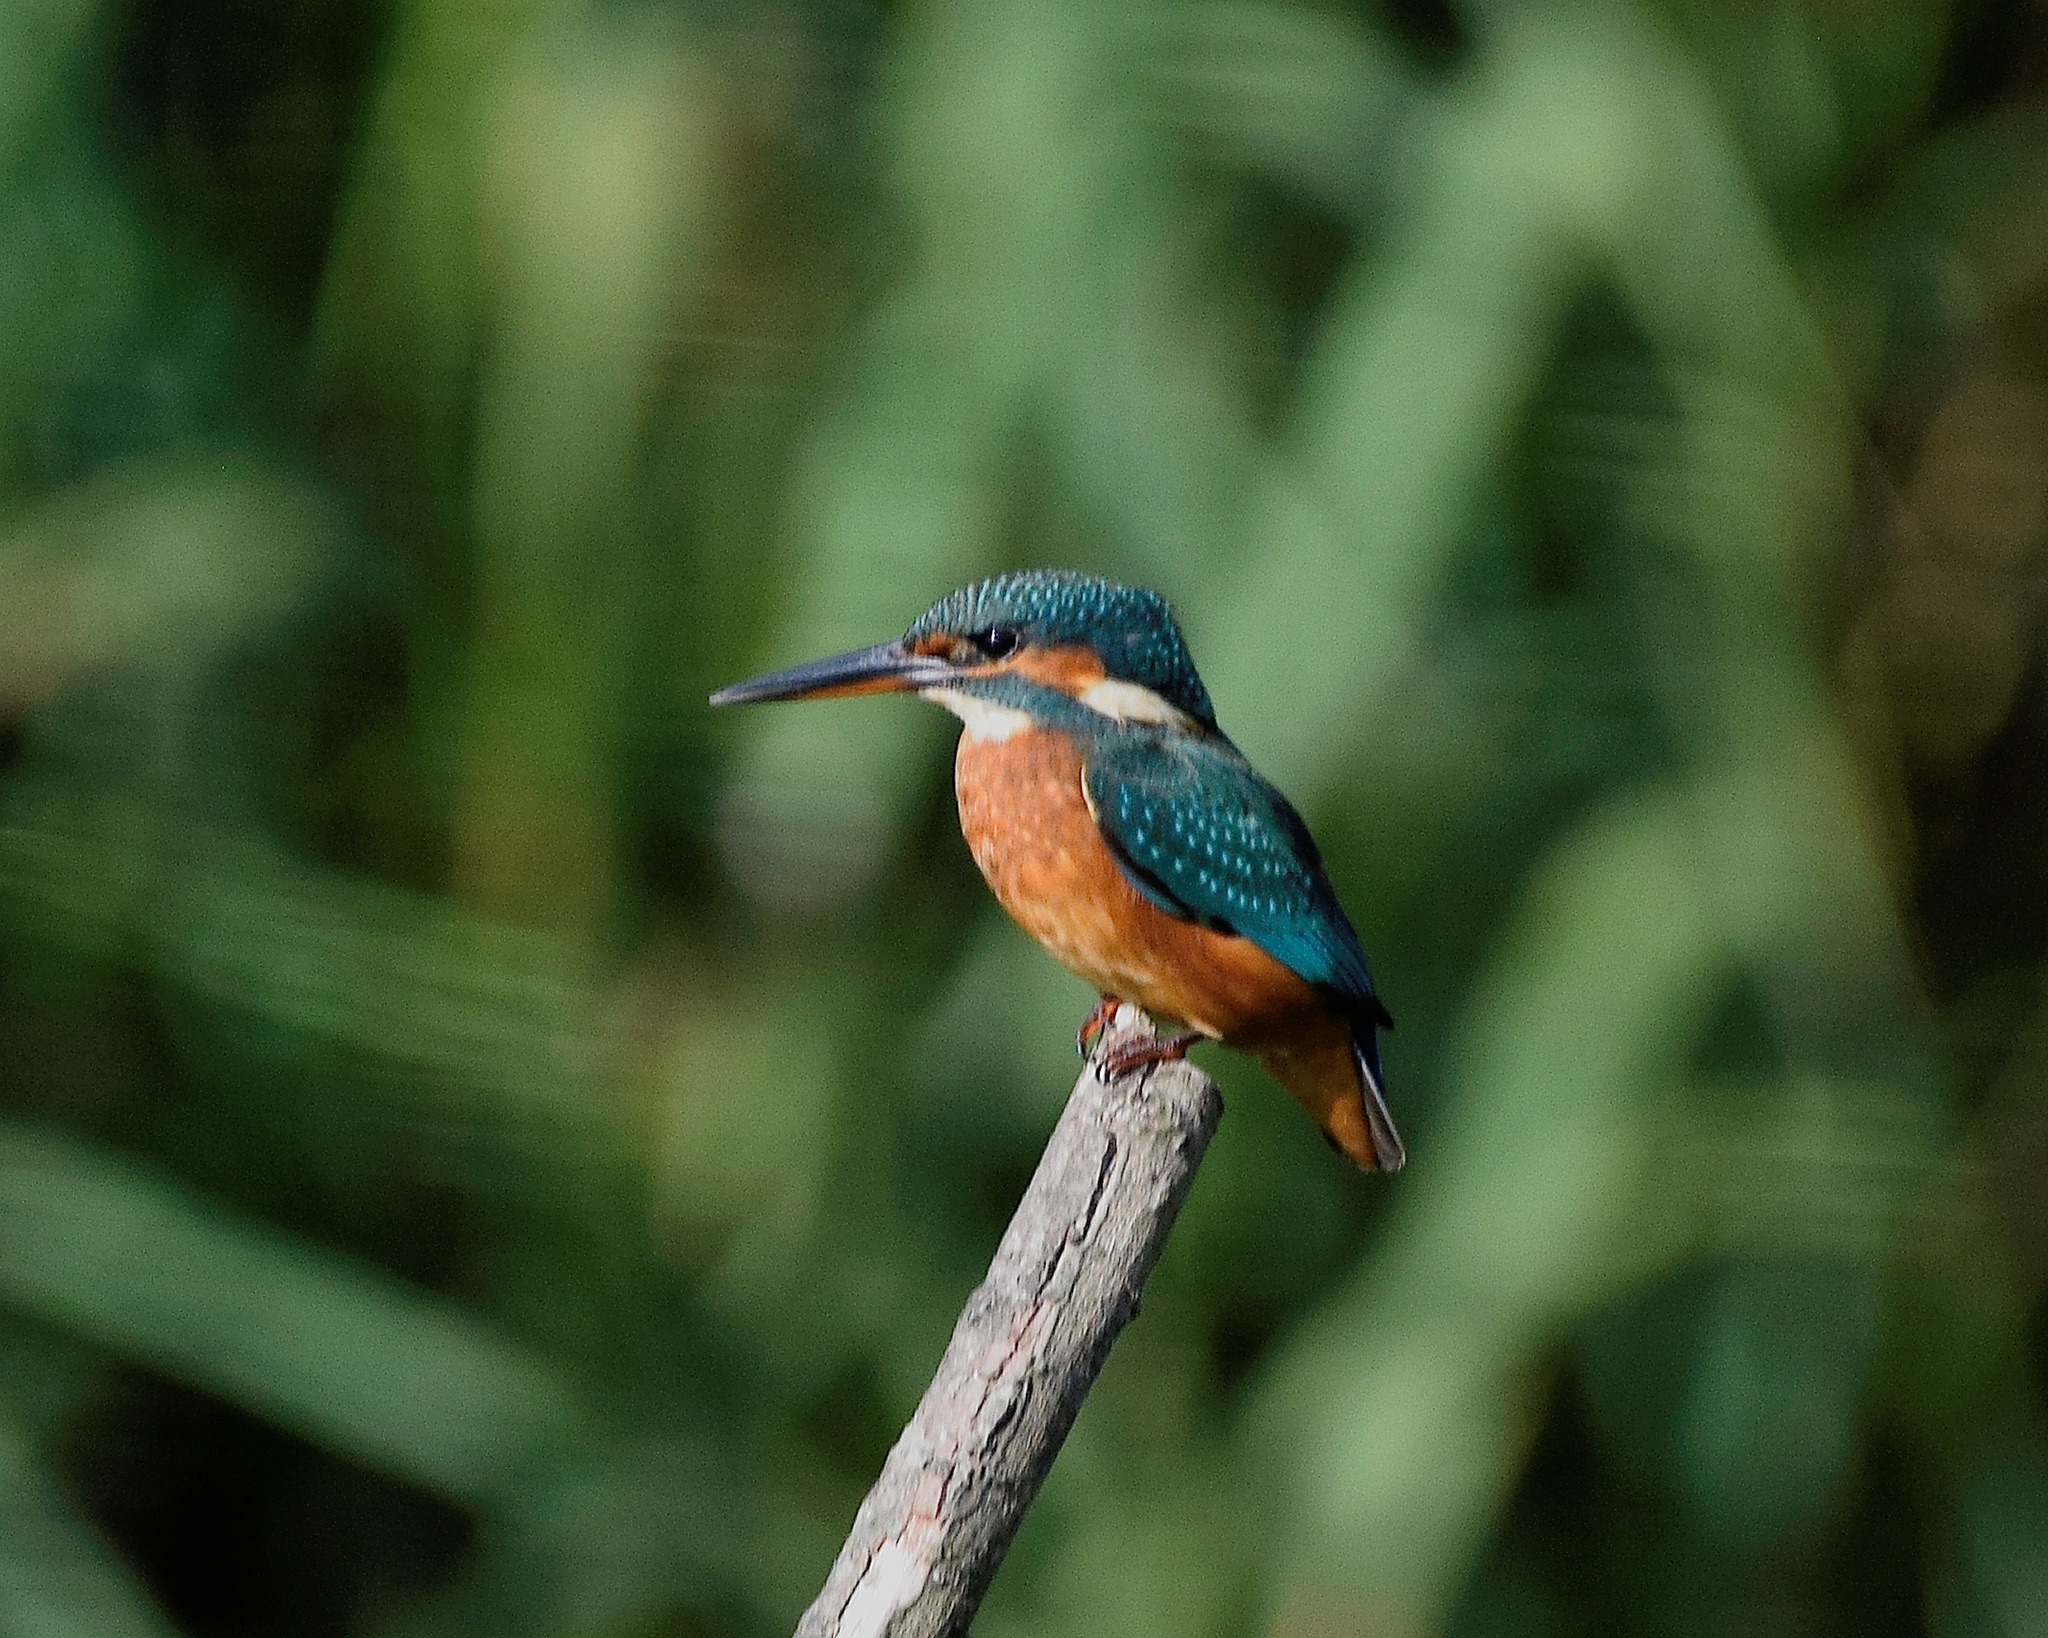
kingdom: Animalia
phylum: Chordata
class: Aves
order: Coraciiformes
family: Alcedinidae
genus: Alcedo
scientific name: Alcedo atthis
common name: Common kingfisher
